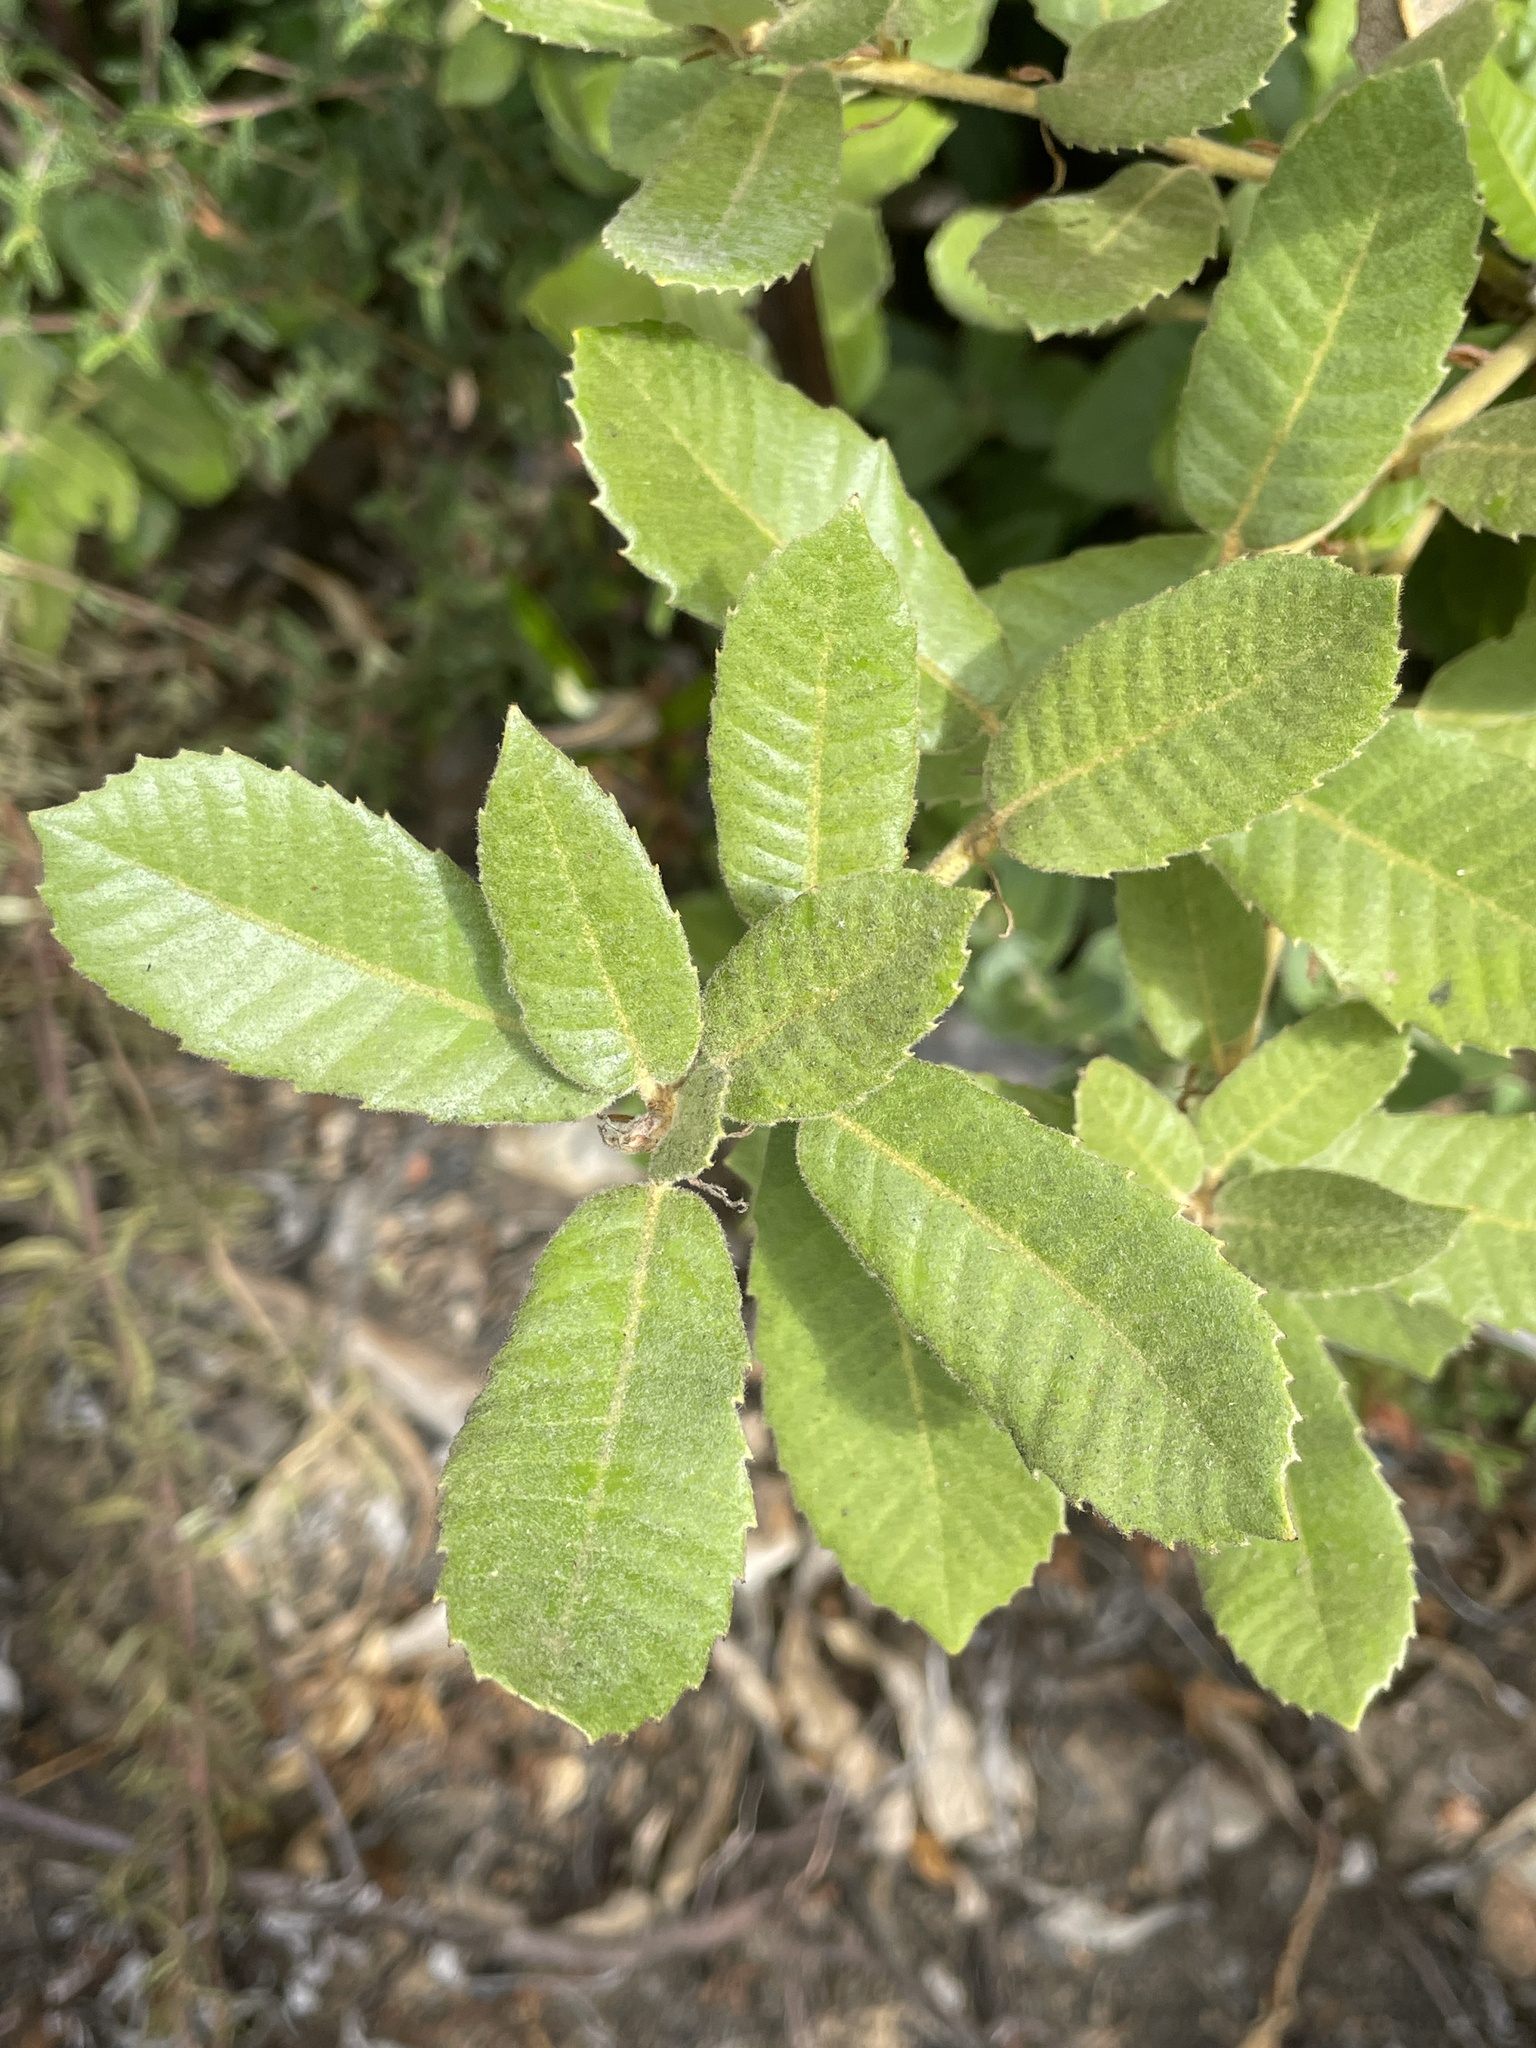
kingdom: Plantae
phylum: Tracheophyta
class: Magnoliopsida
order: Fagales
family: Fagaceae
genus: Notholithocarpus
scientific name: Notholithocarpus densiflorus
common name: Tan bark oak
